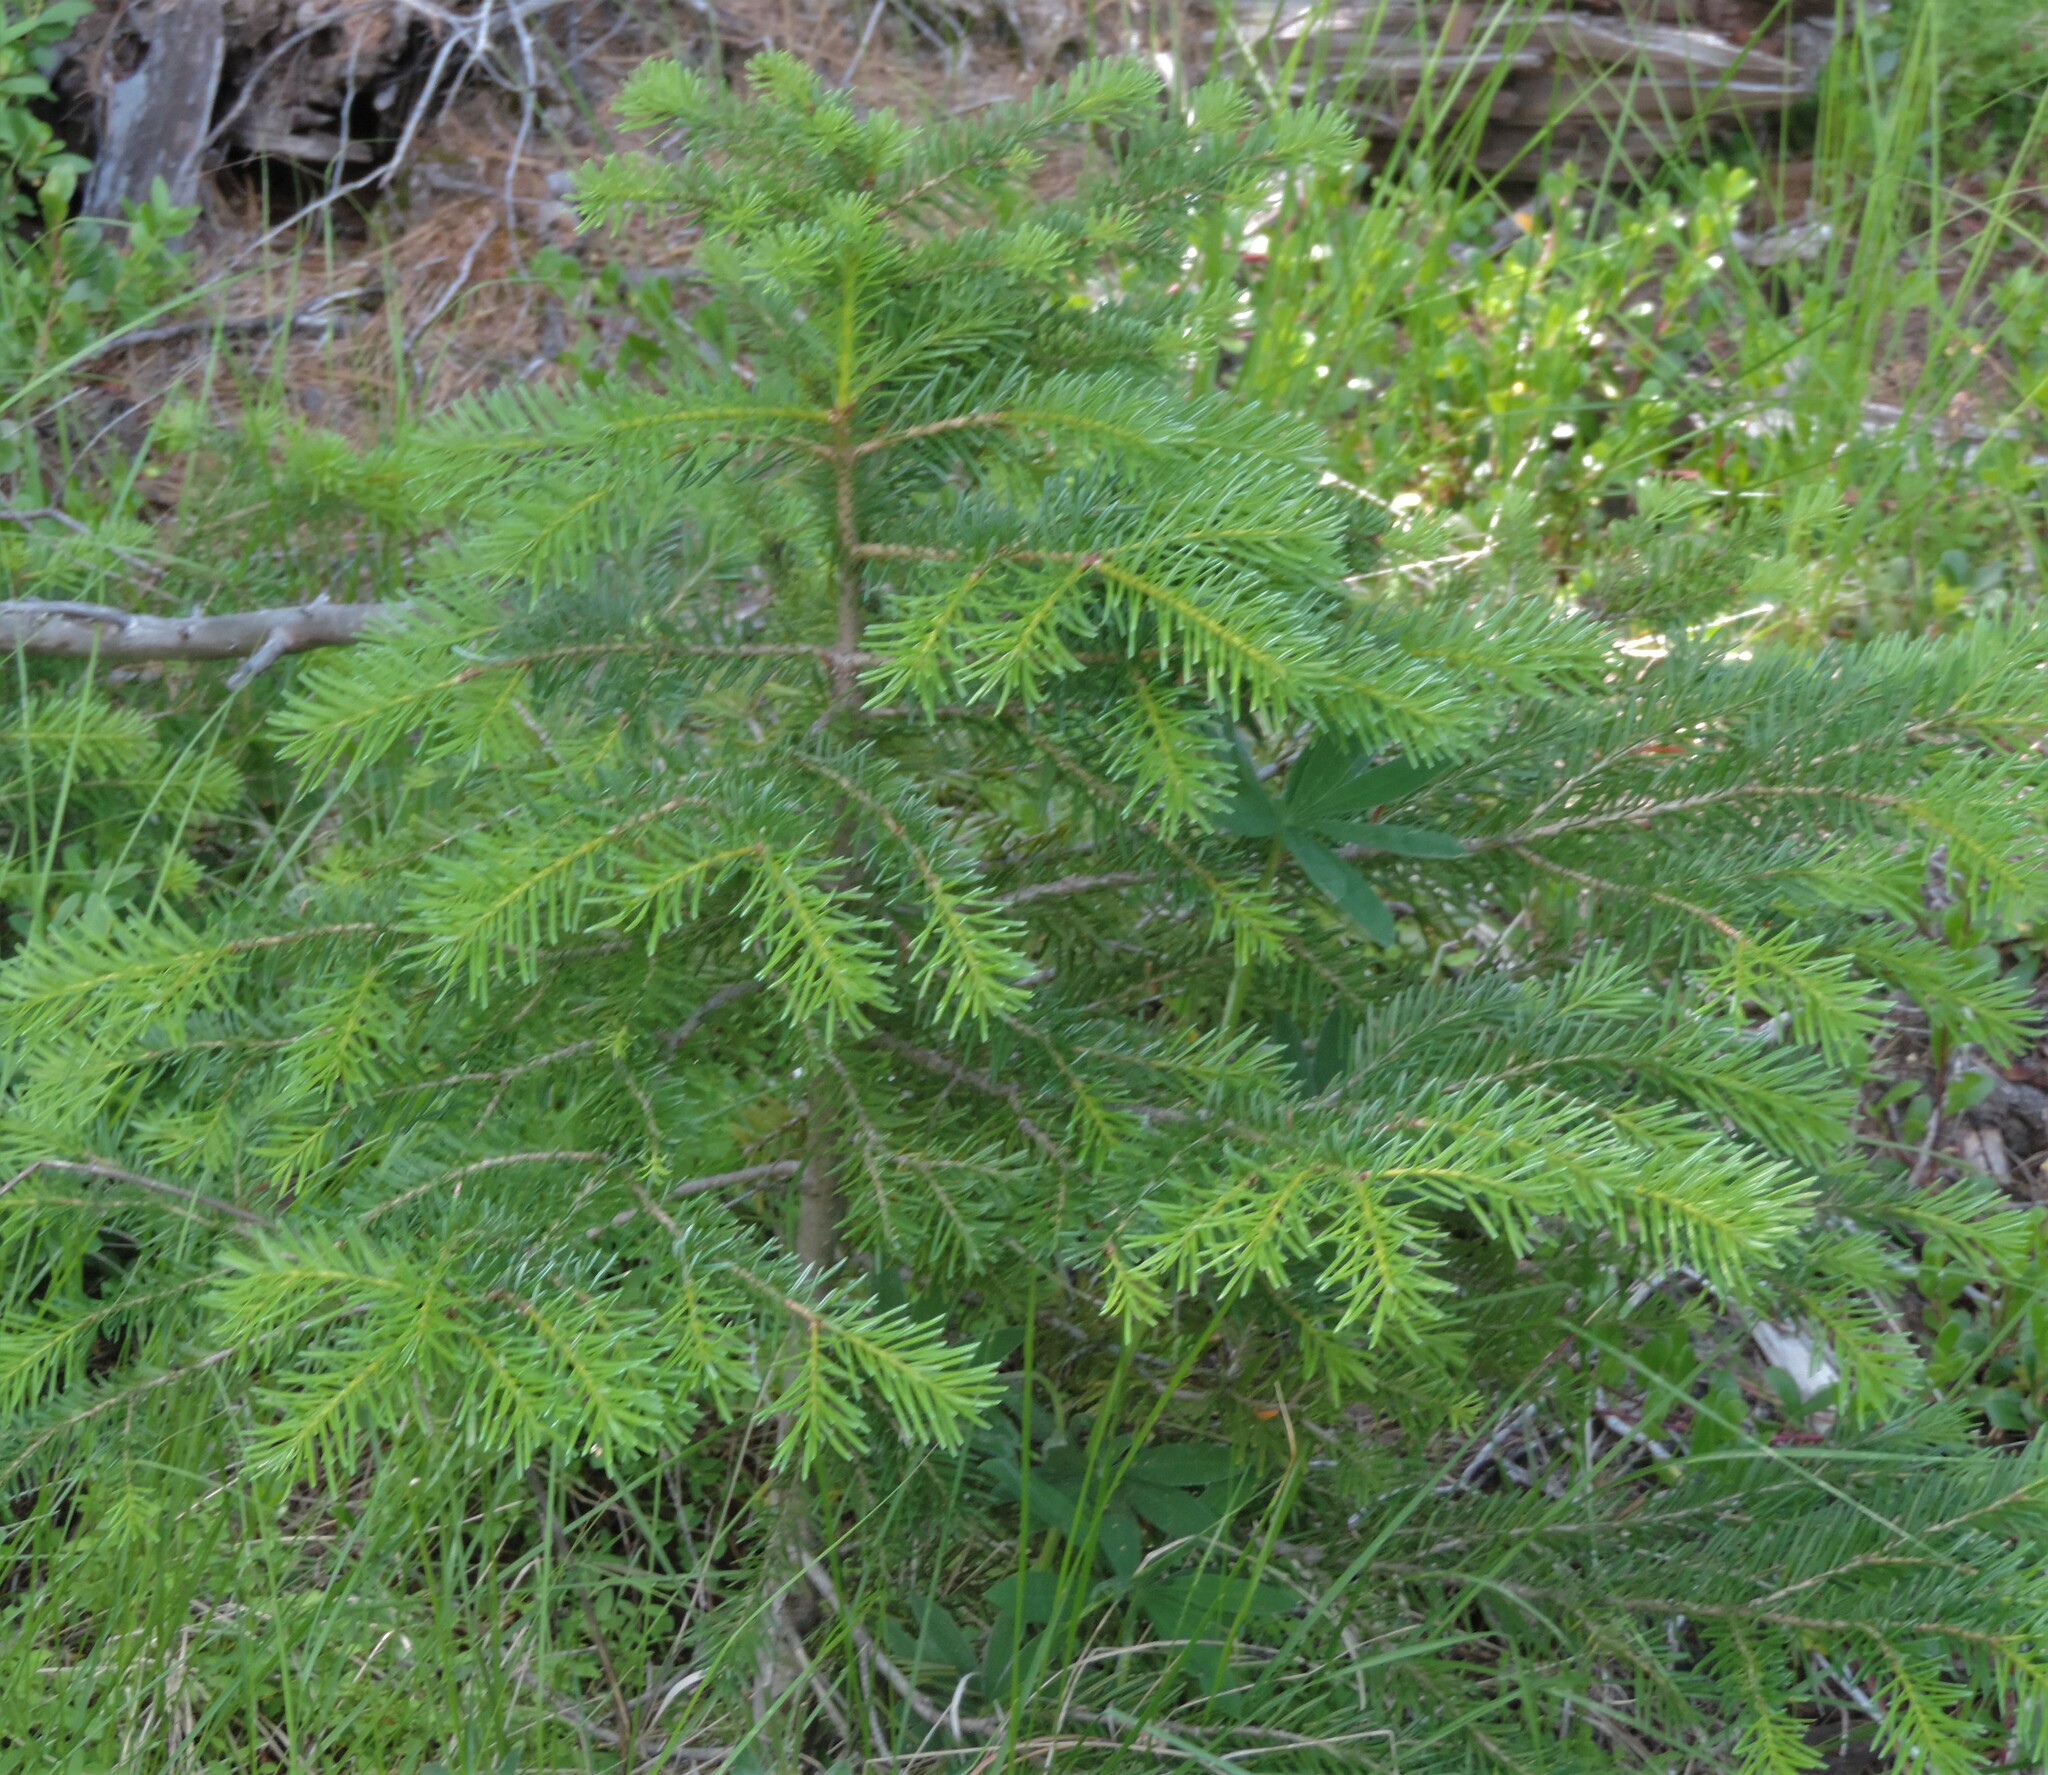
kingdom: Plantae
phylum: Tracheophyta
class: Pinopsida
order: Pinales
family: Pinaceae
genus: Pseudotsuga
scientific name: Pseudotsuga menziesii
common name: Douglas fir
